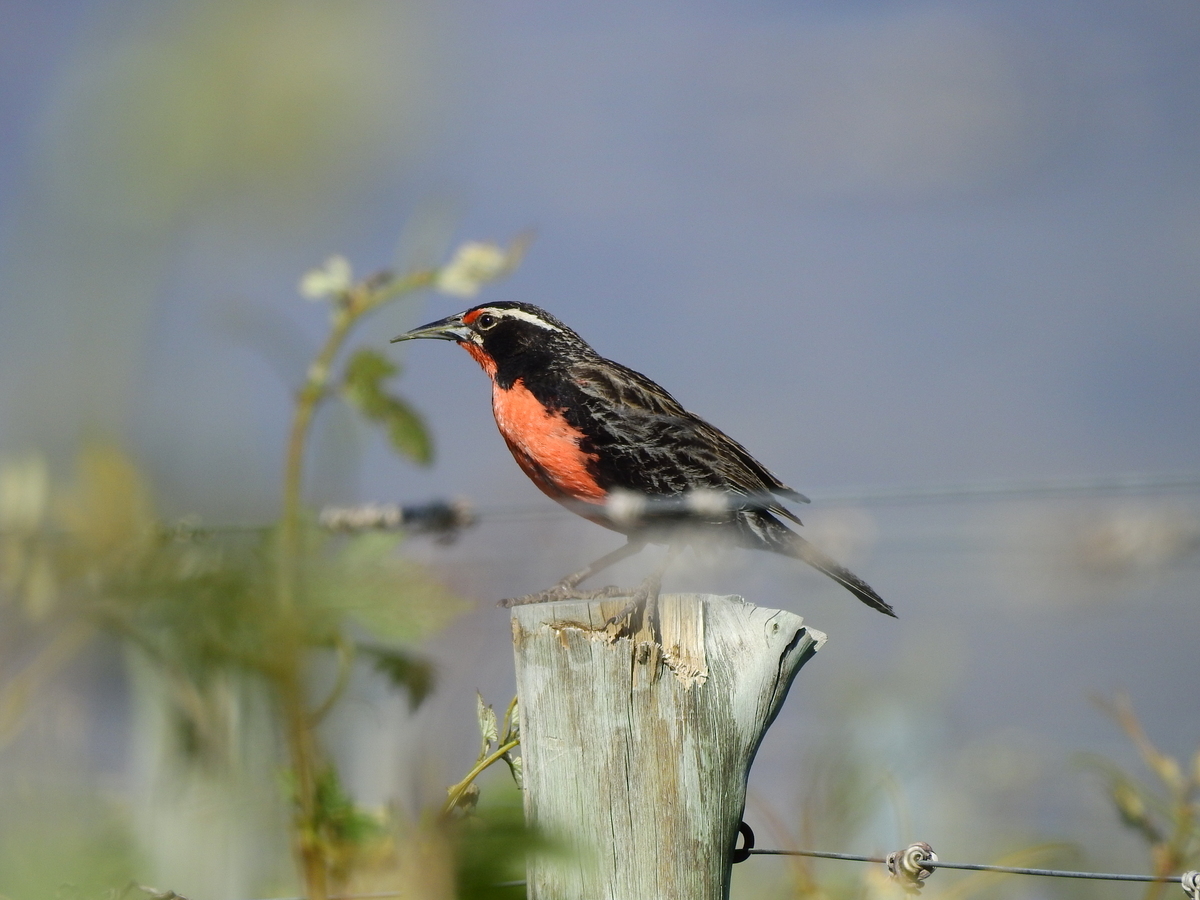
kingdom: Animalia
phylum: Chordata
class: Aves
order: Passeriformes
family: Icteridae
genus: Sturnella
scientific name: Sturnella loyca
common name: Long-tailed meadowlark
